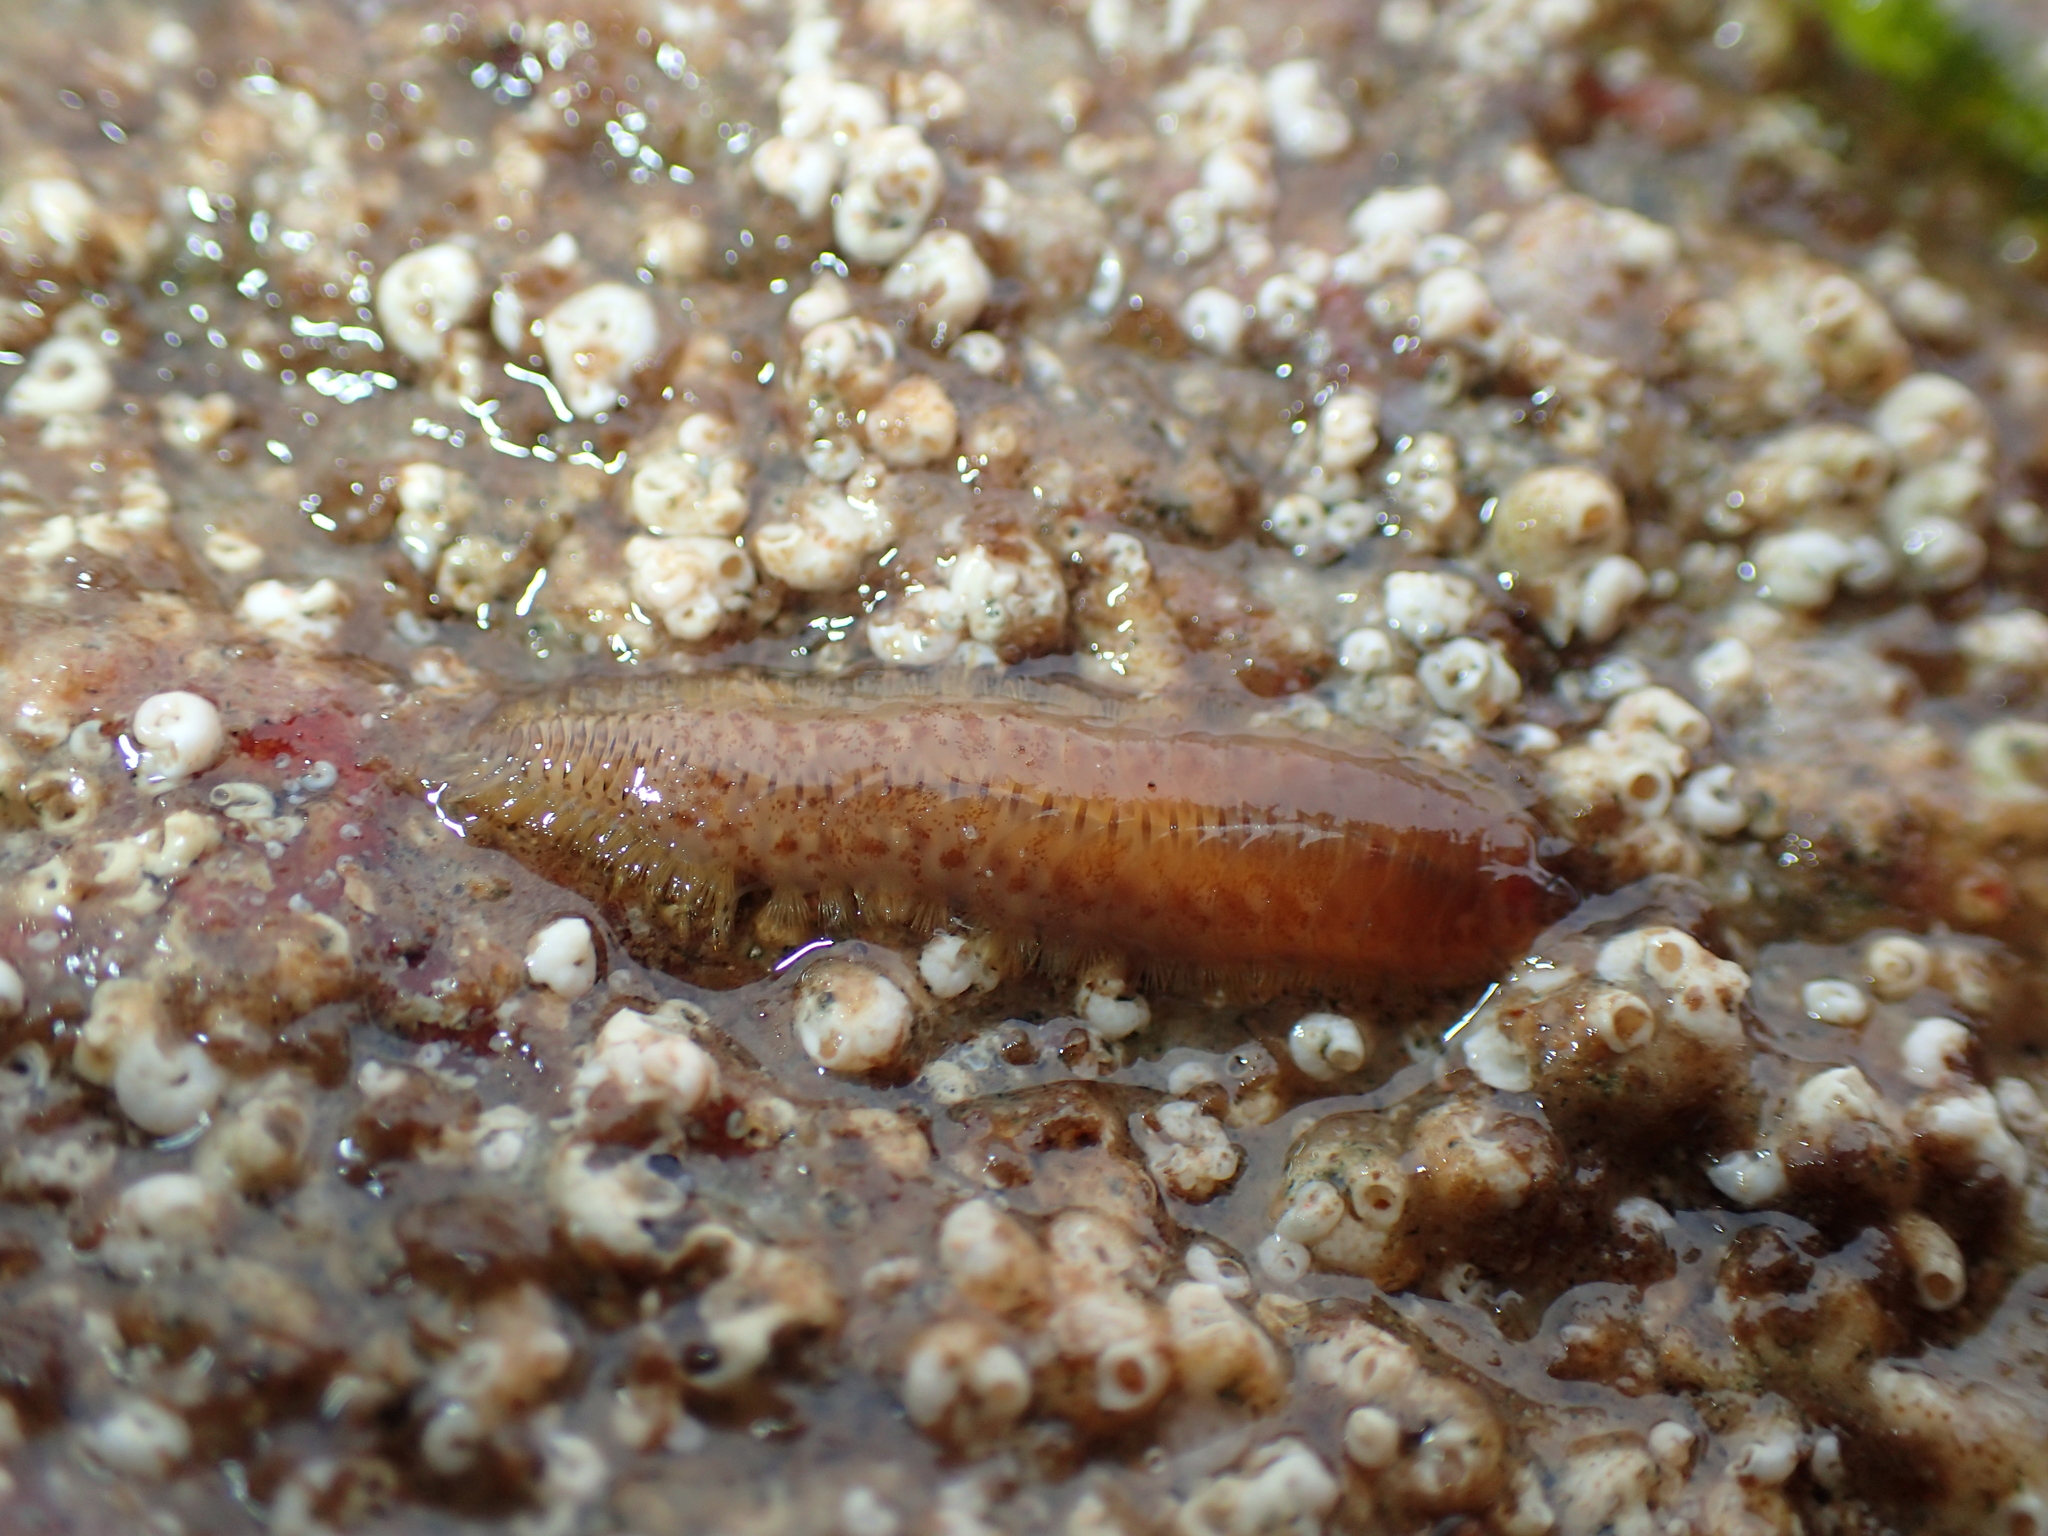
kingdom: Animalia
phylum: Annelida
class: Polychaeta
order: Phyllodocida
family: Polynoidae
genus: Harmothoe
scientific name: Harmothoe extenuata
